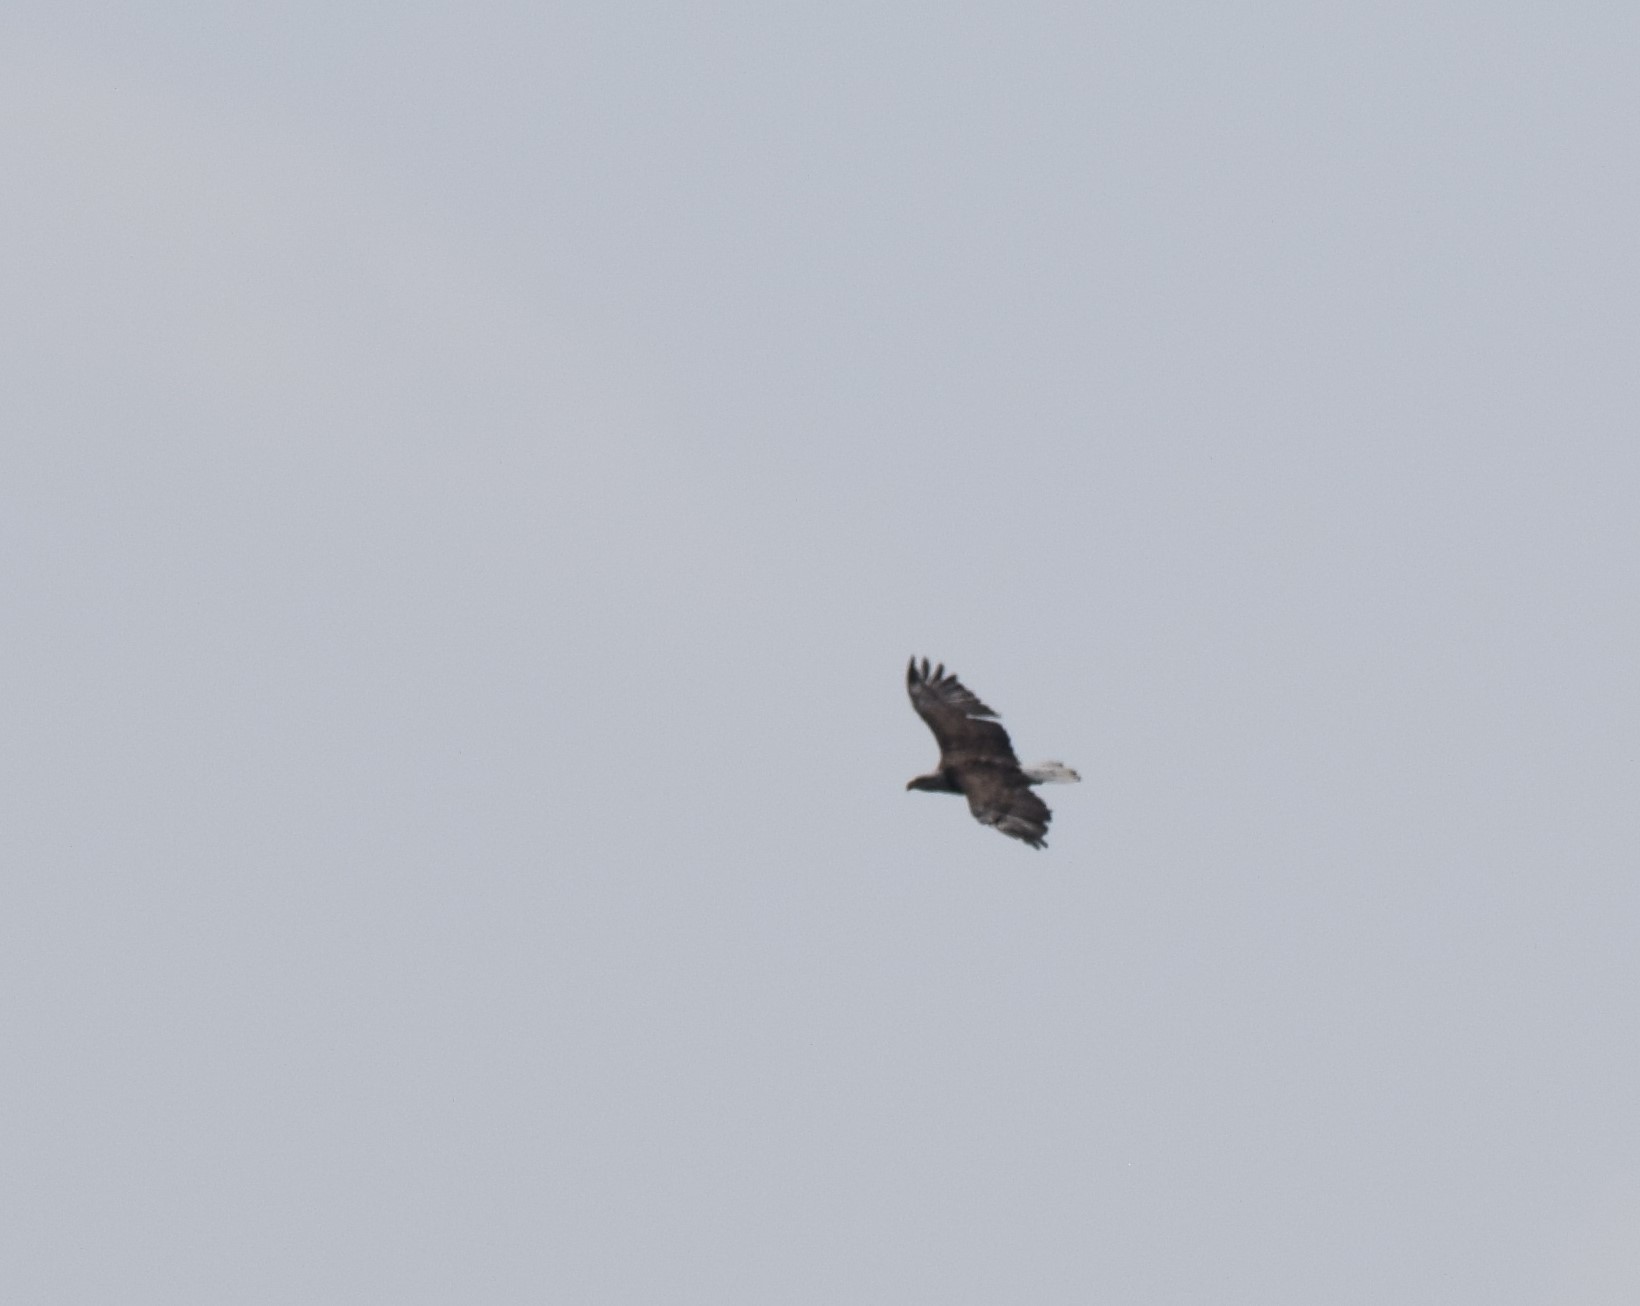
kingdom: Animalia
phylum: Chordata
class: Aves
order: Accipitriformes
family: Accipitridae
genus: Haliaeetus
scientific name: Haliaeetus leucocephalus
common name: Bald eagle
